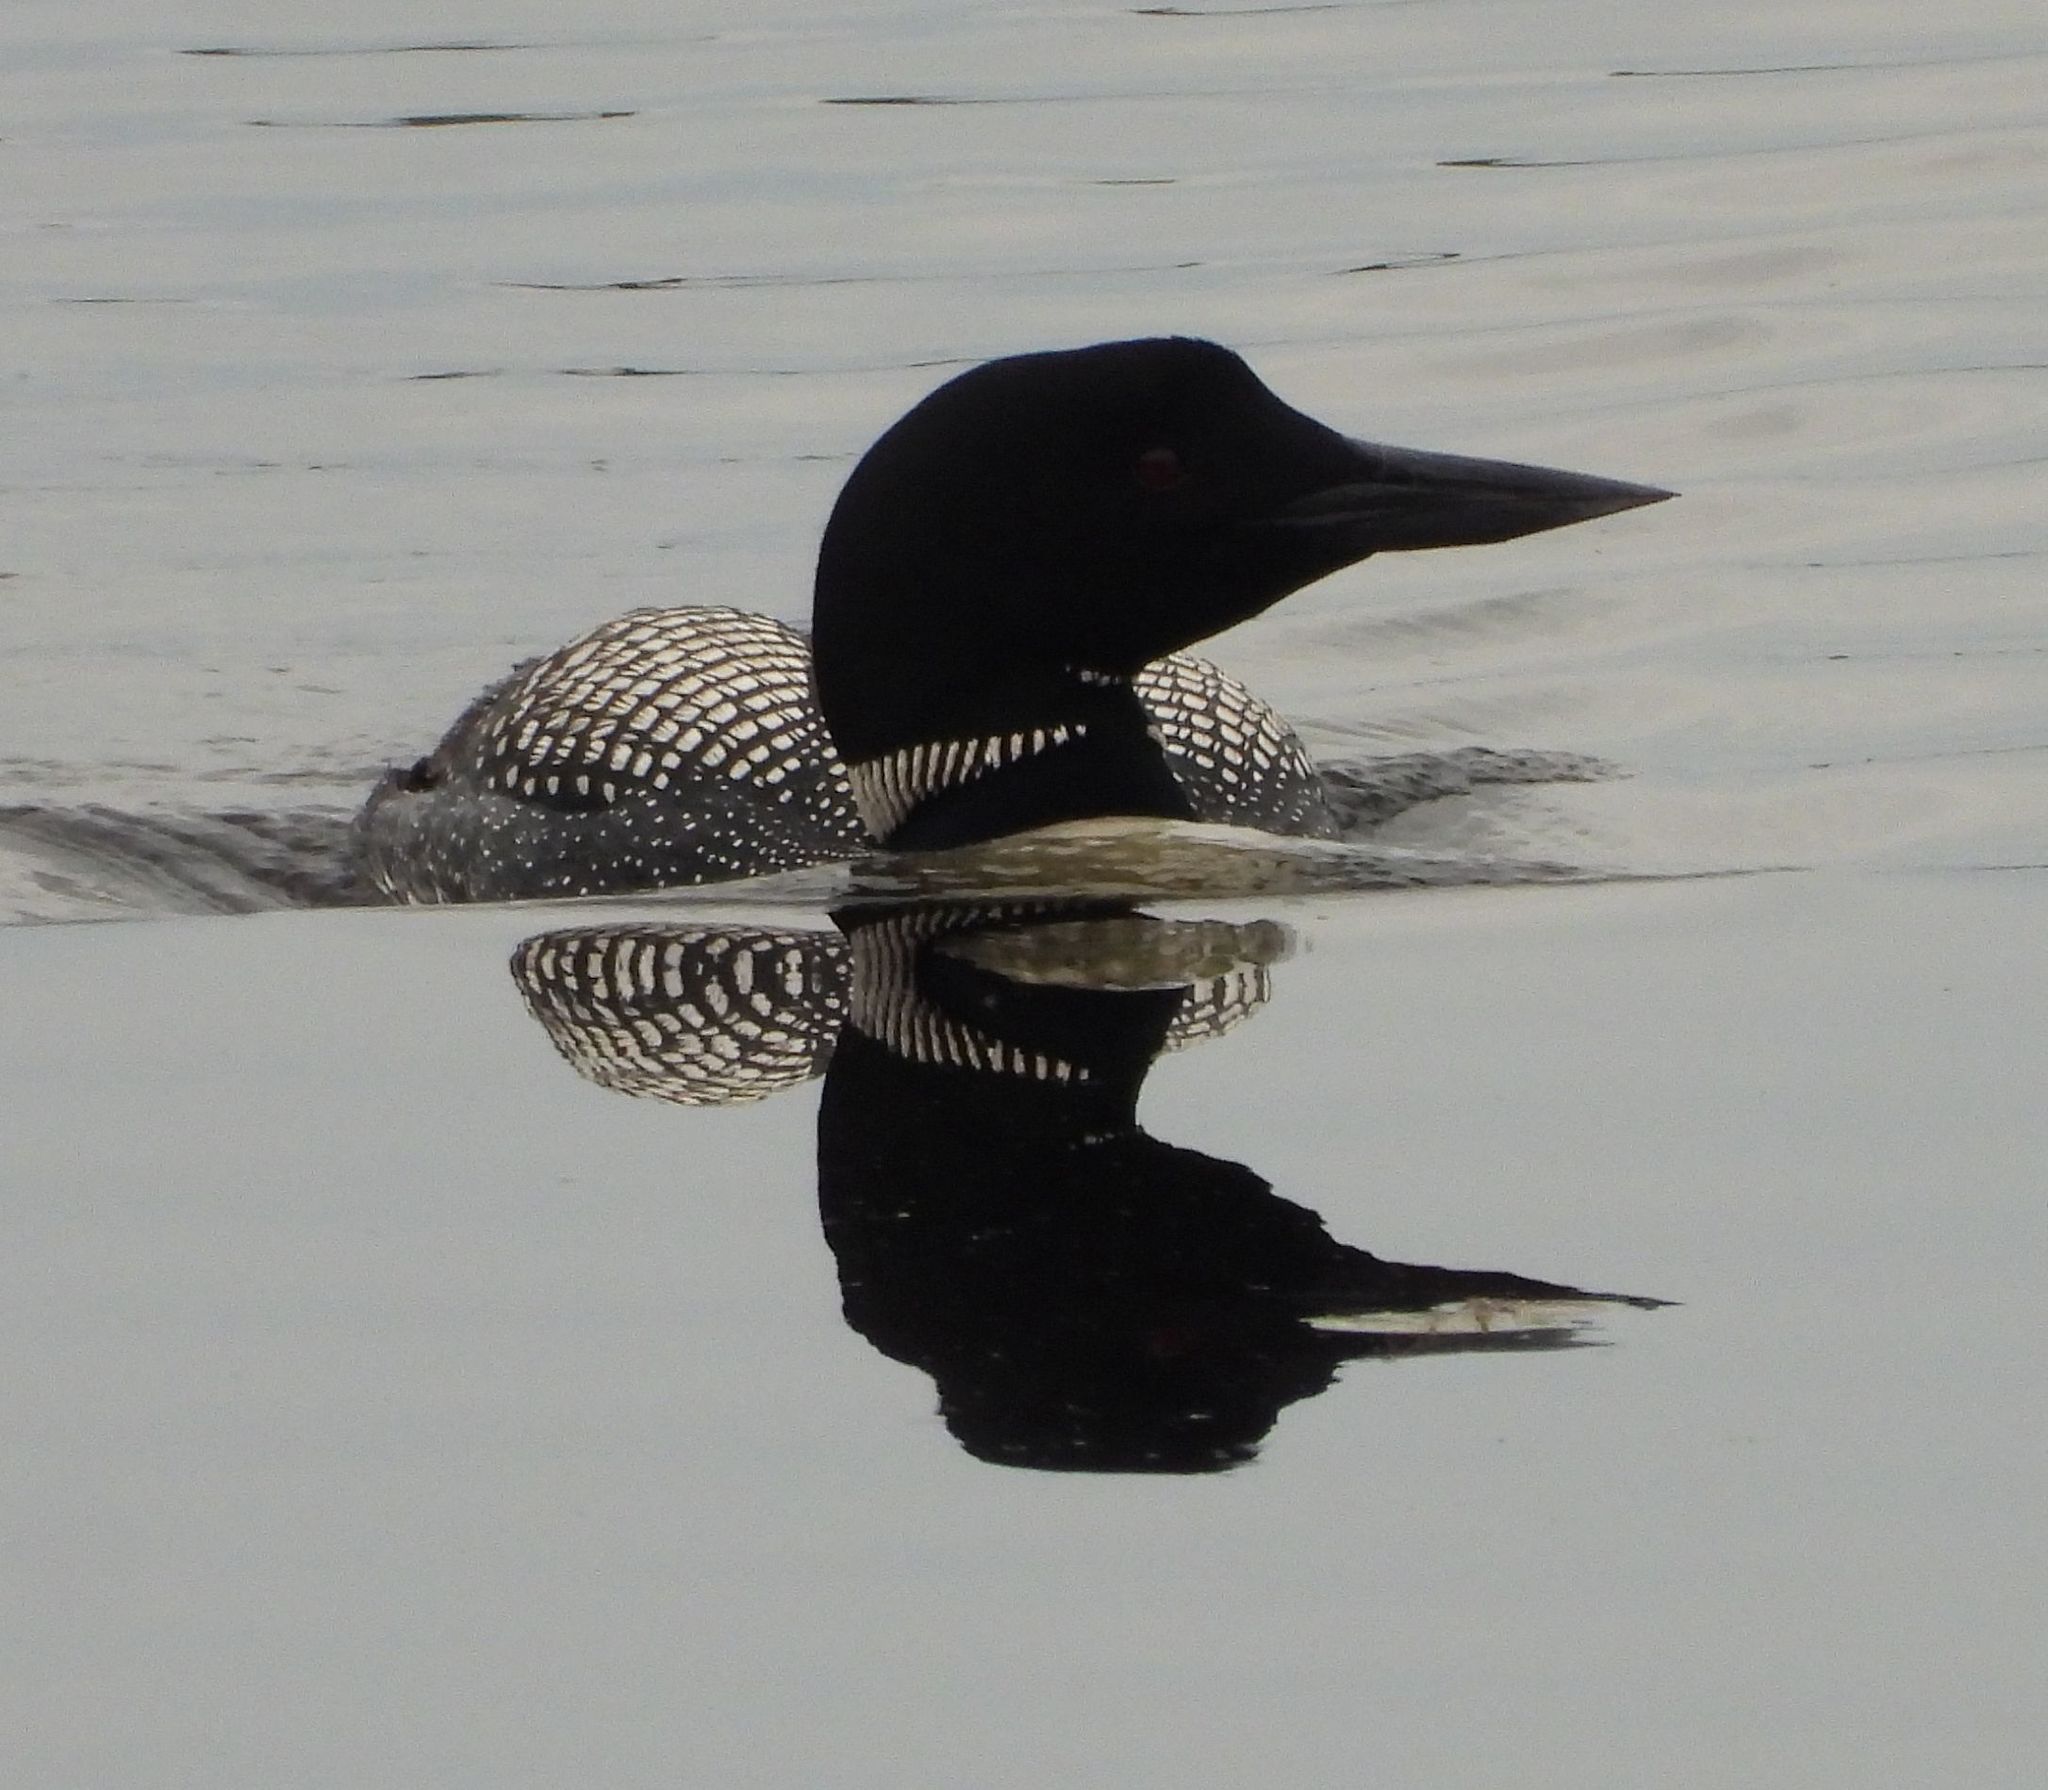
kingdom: Animalia
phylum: Chordata
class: Aves
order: Gaviiformes
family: Gaviidae
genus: Gavia
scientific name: Gavia immer
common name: Common loon
